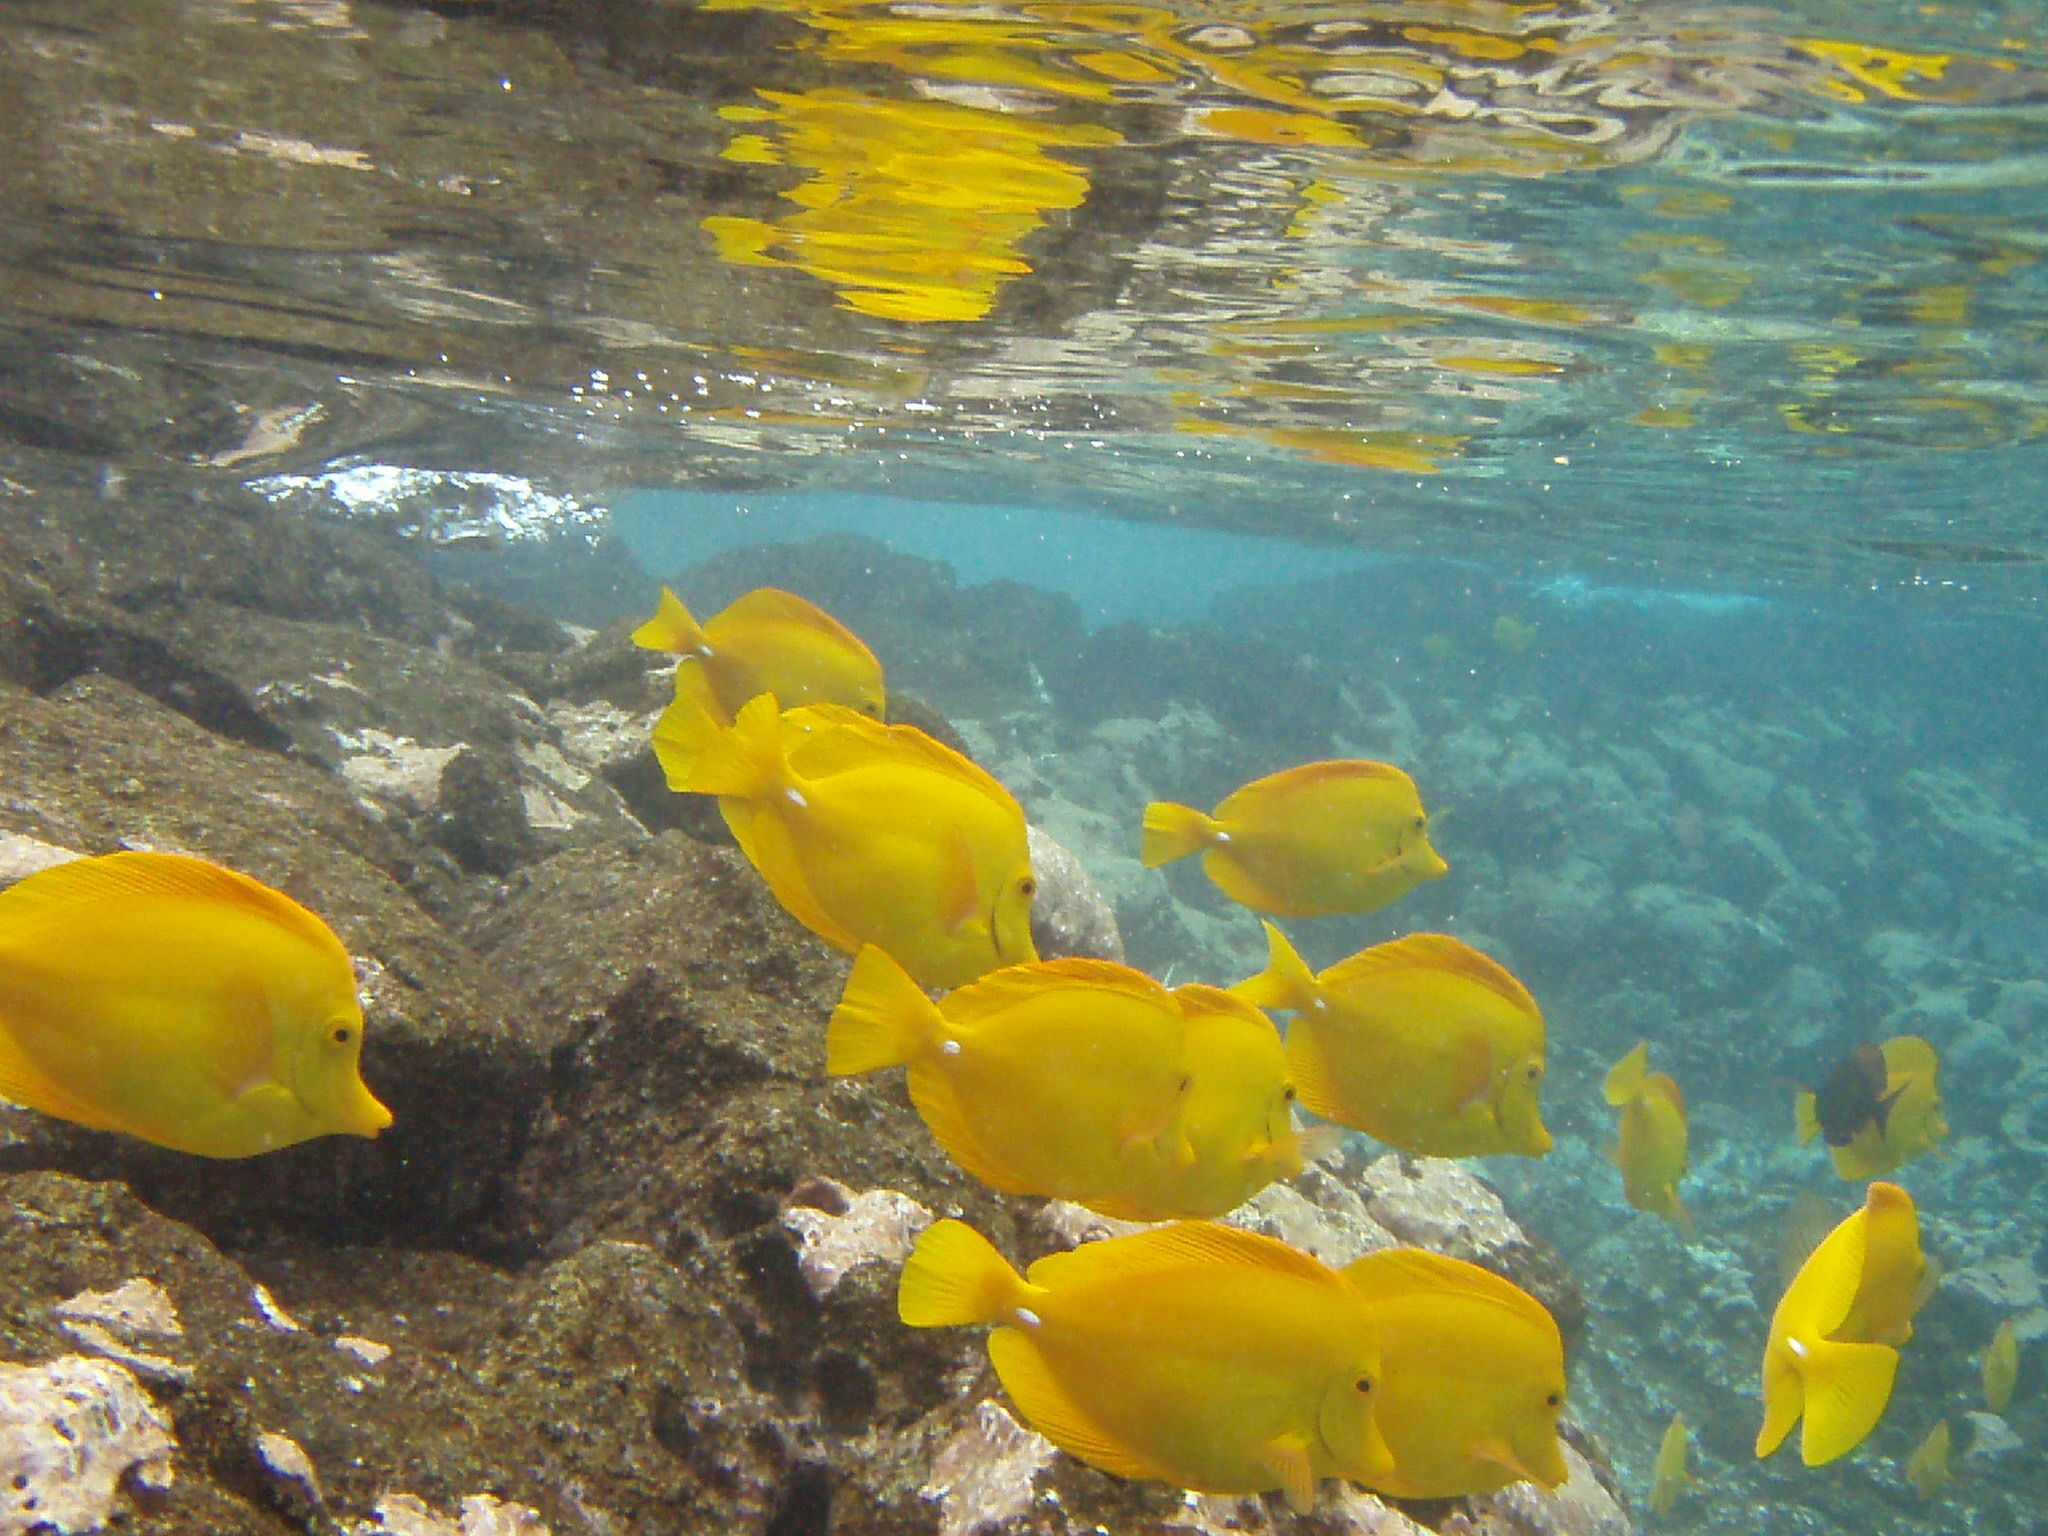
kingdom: Animalia
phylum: Chordata
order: Perciformes
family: Acanthuridae
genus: Zebrasoma
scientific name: Zebrasoma flavescens
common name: Yellow tang
